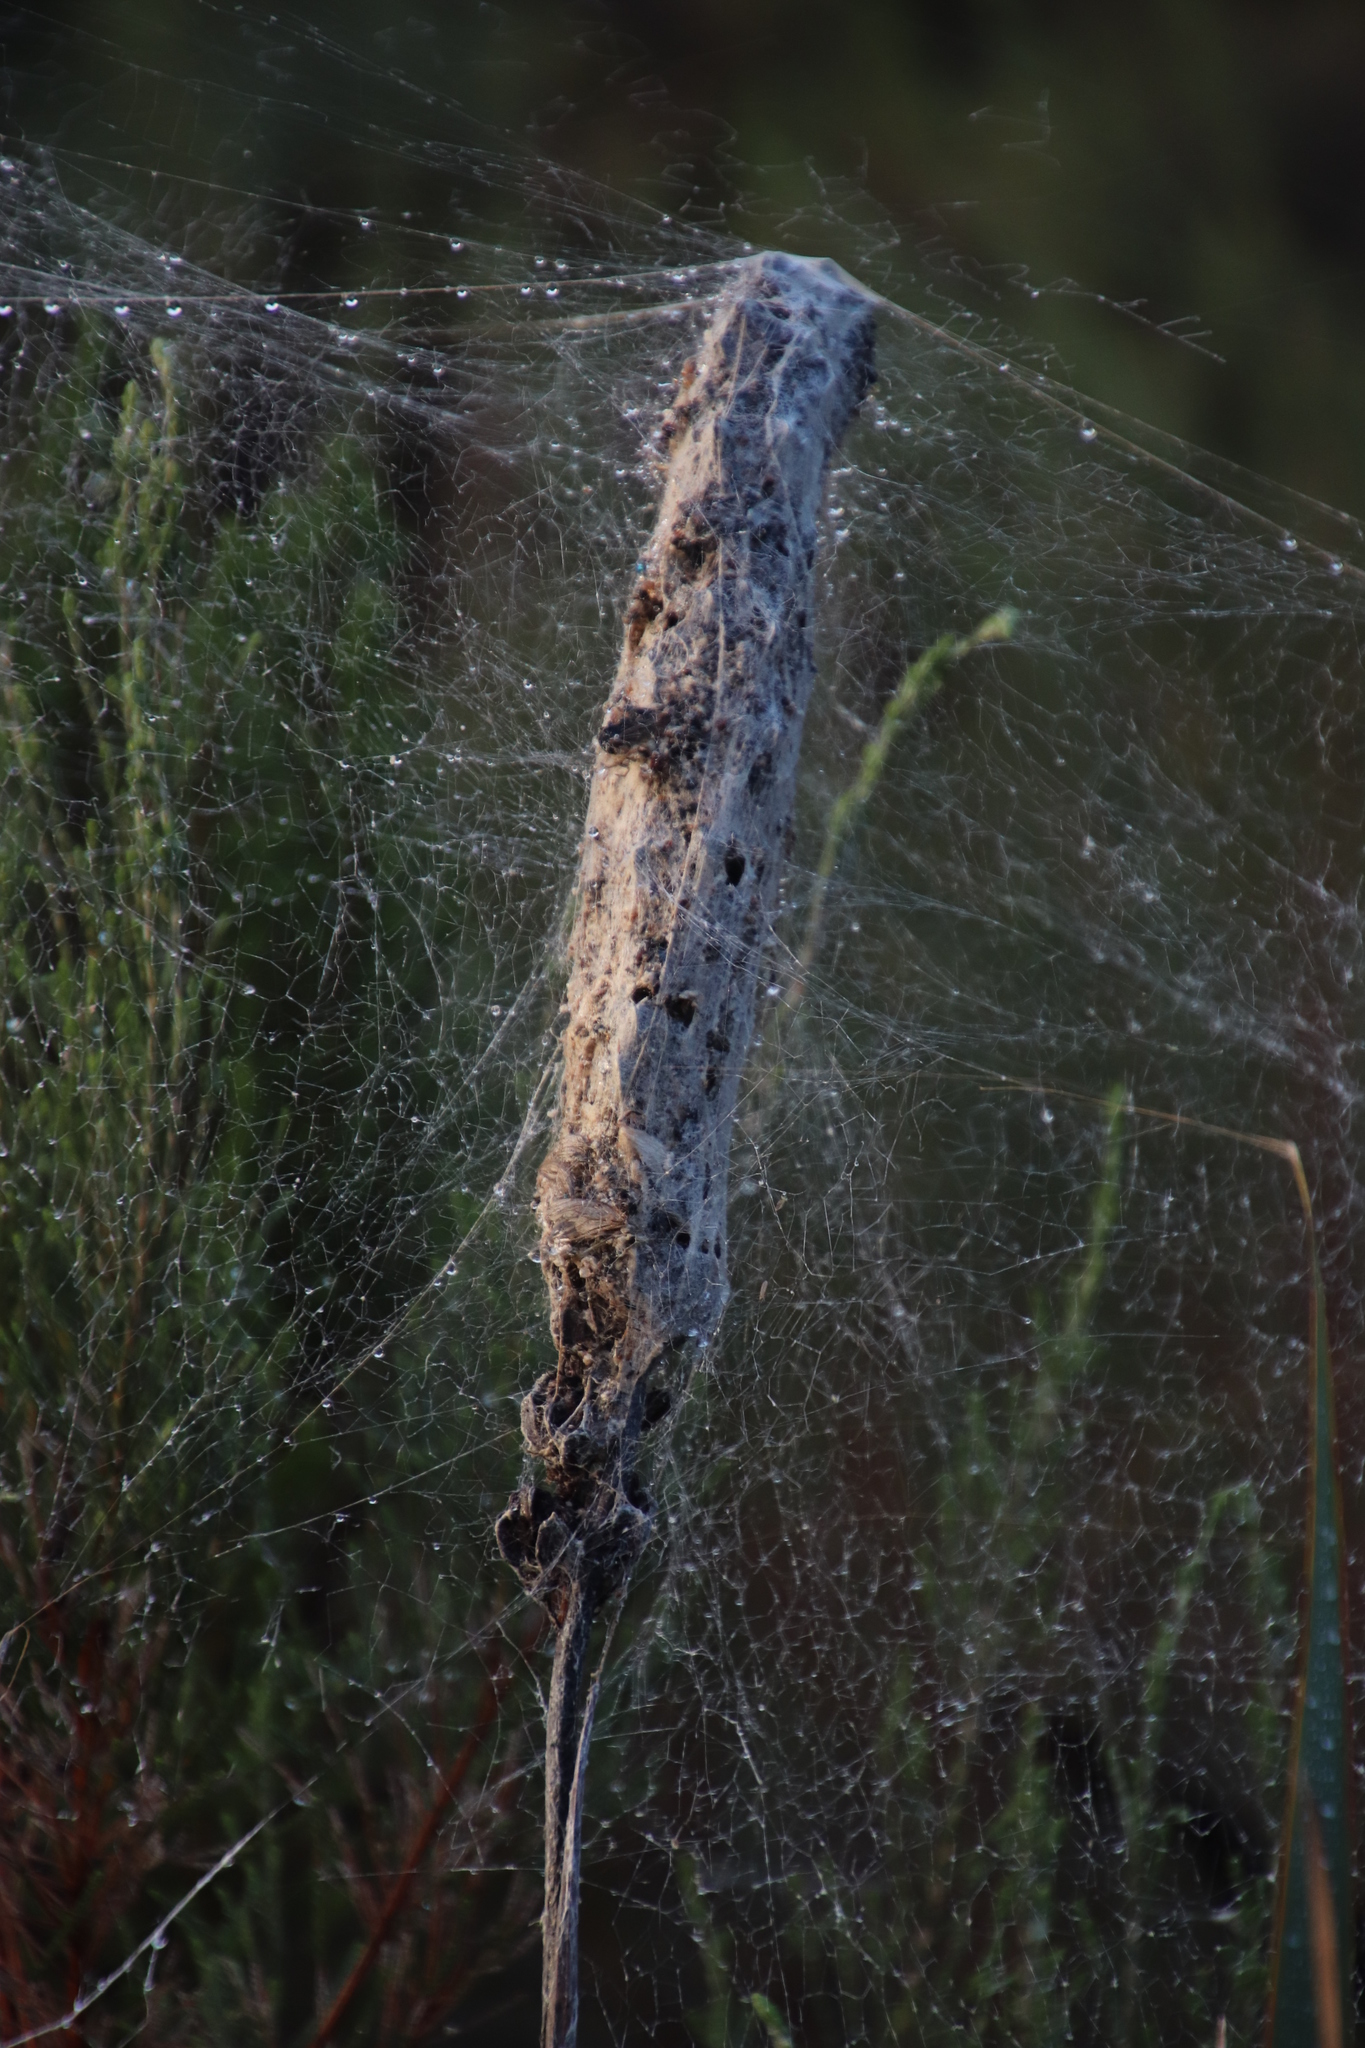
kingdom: Animalia
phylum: Arthropoda
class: Arachnida
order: Araneae
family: Eresidae
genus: Stegodyphus
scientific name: Stegodyphus dumicola
